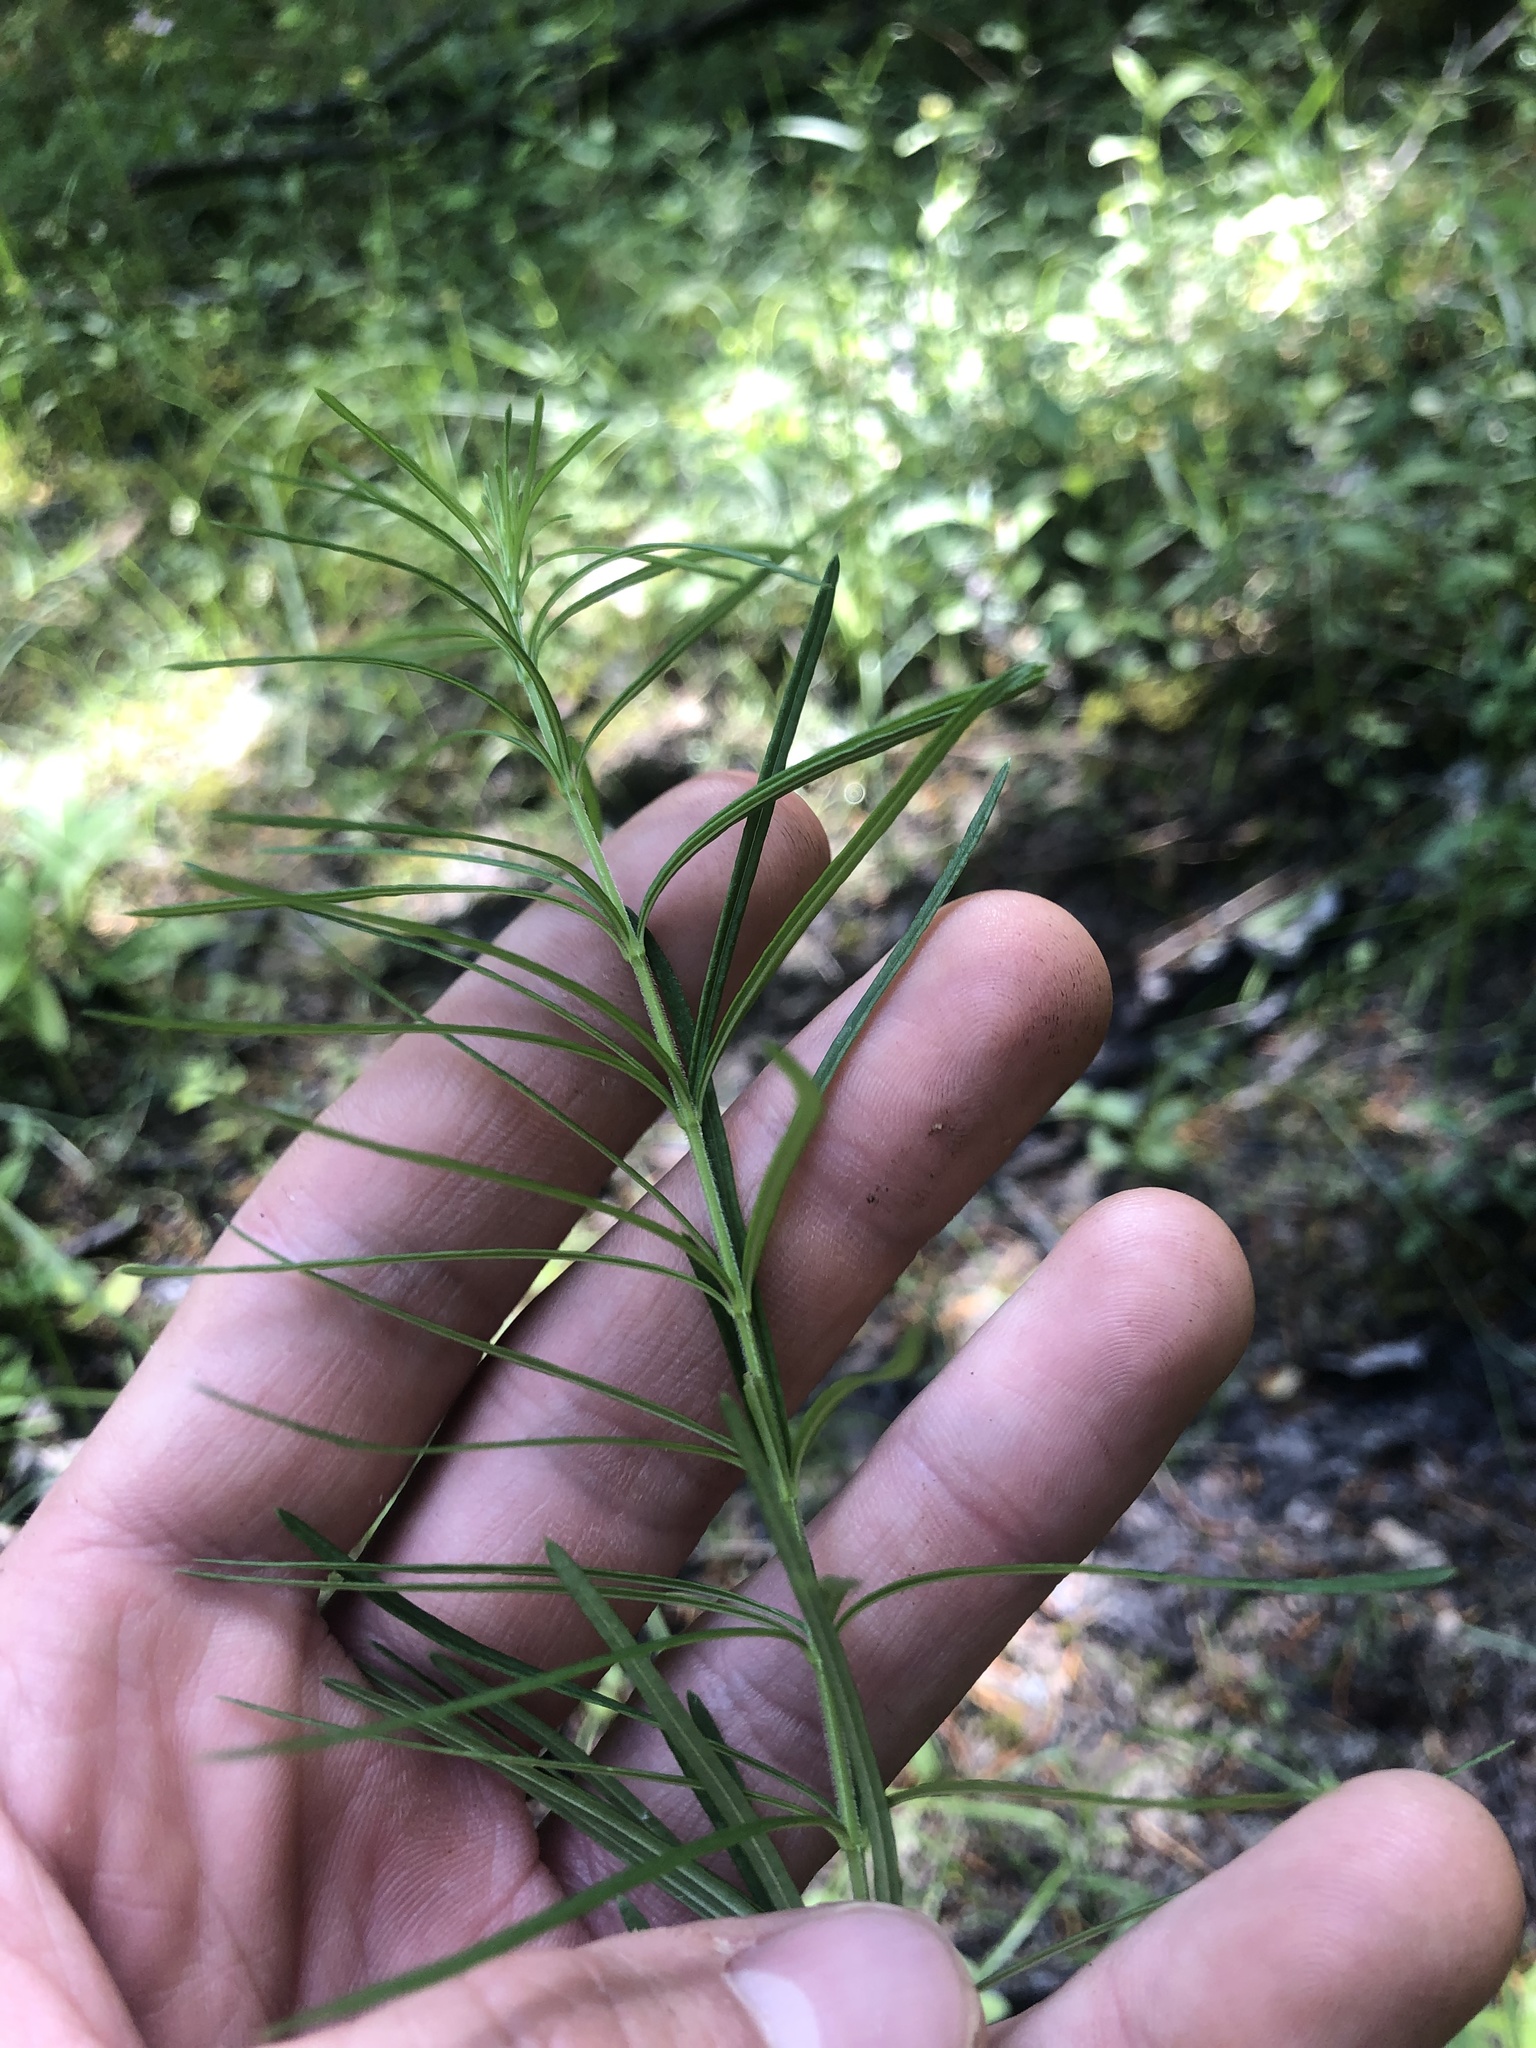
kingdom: Plantae
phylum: Tracheophyta
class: Magnoliopsida
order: Gentianales
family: Apocynaceae
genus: Asclepias
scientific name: Asclepias verticillata
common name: Eastern whorled milkweed
